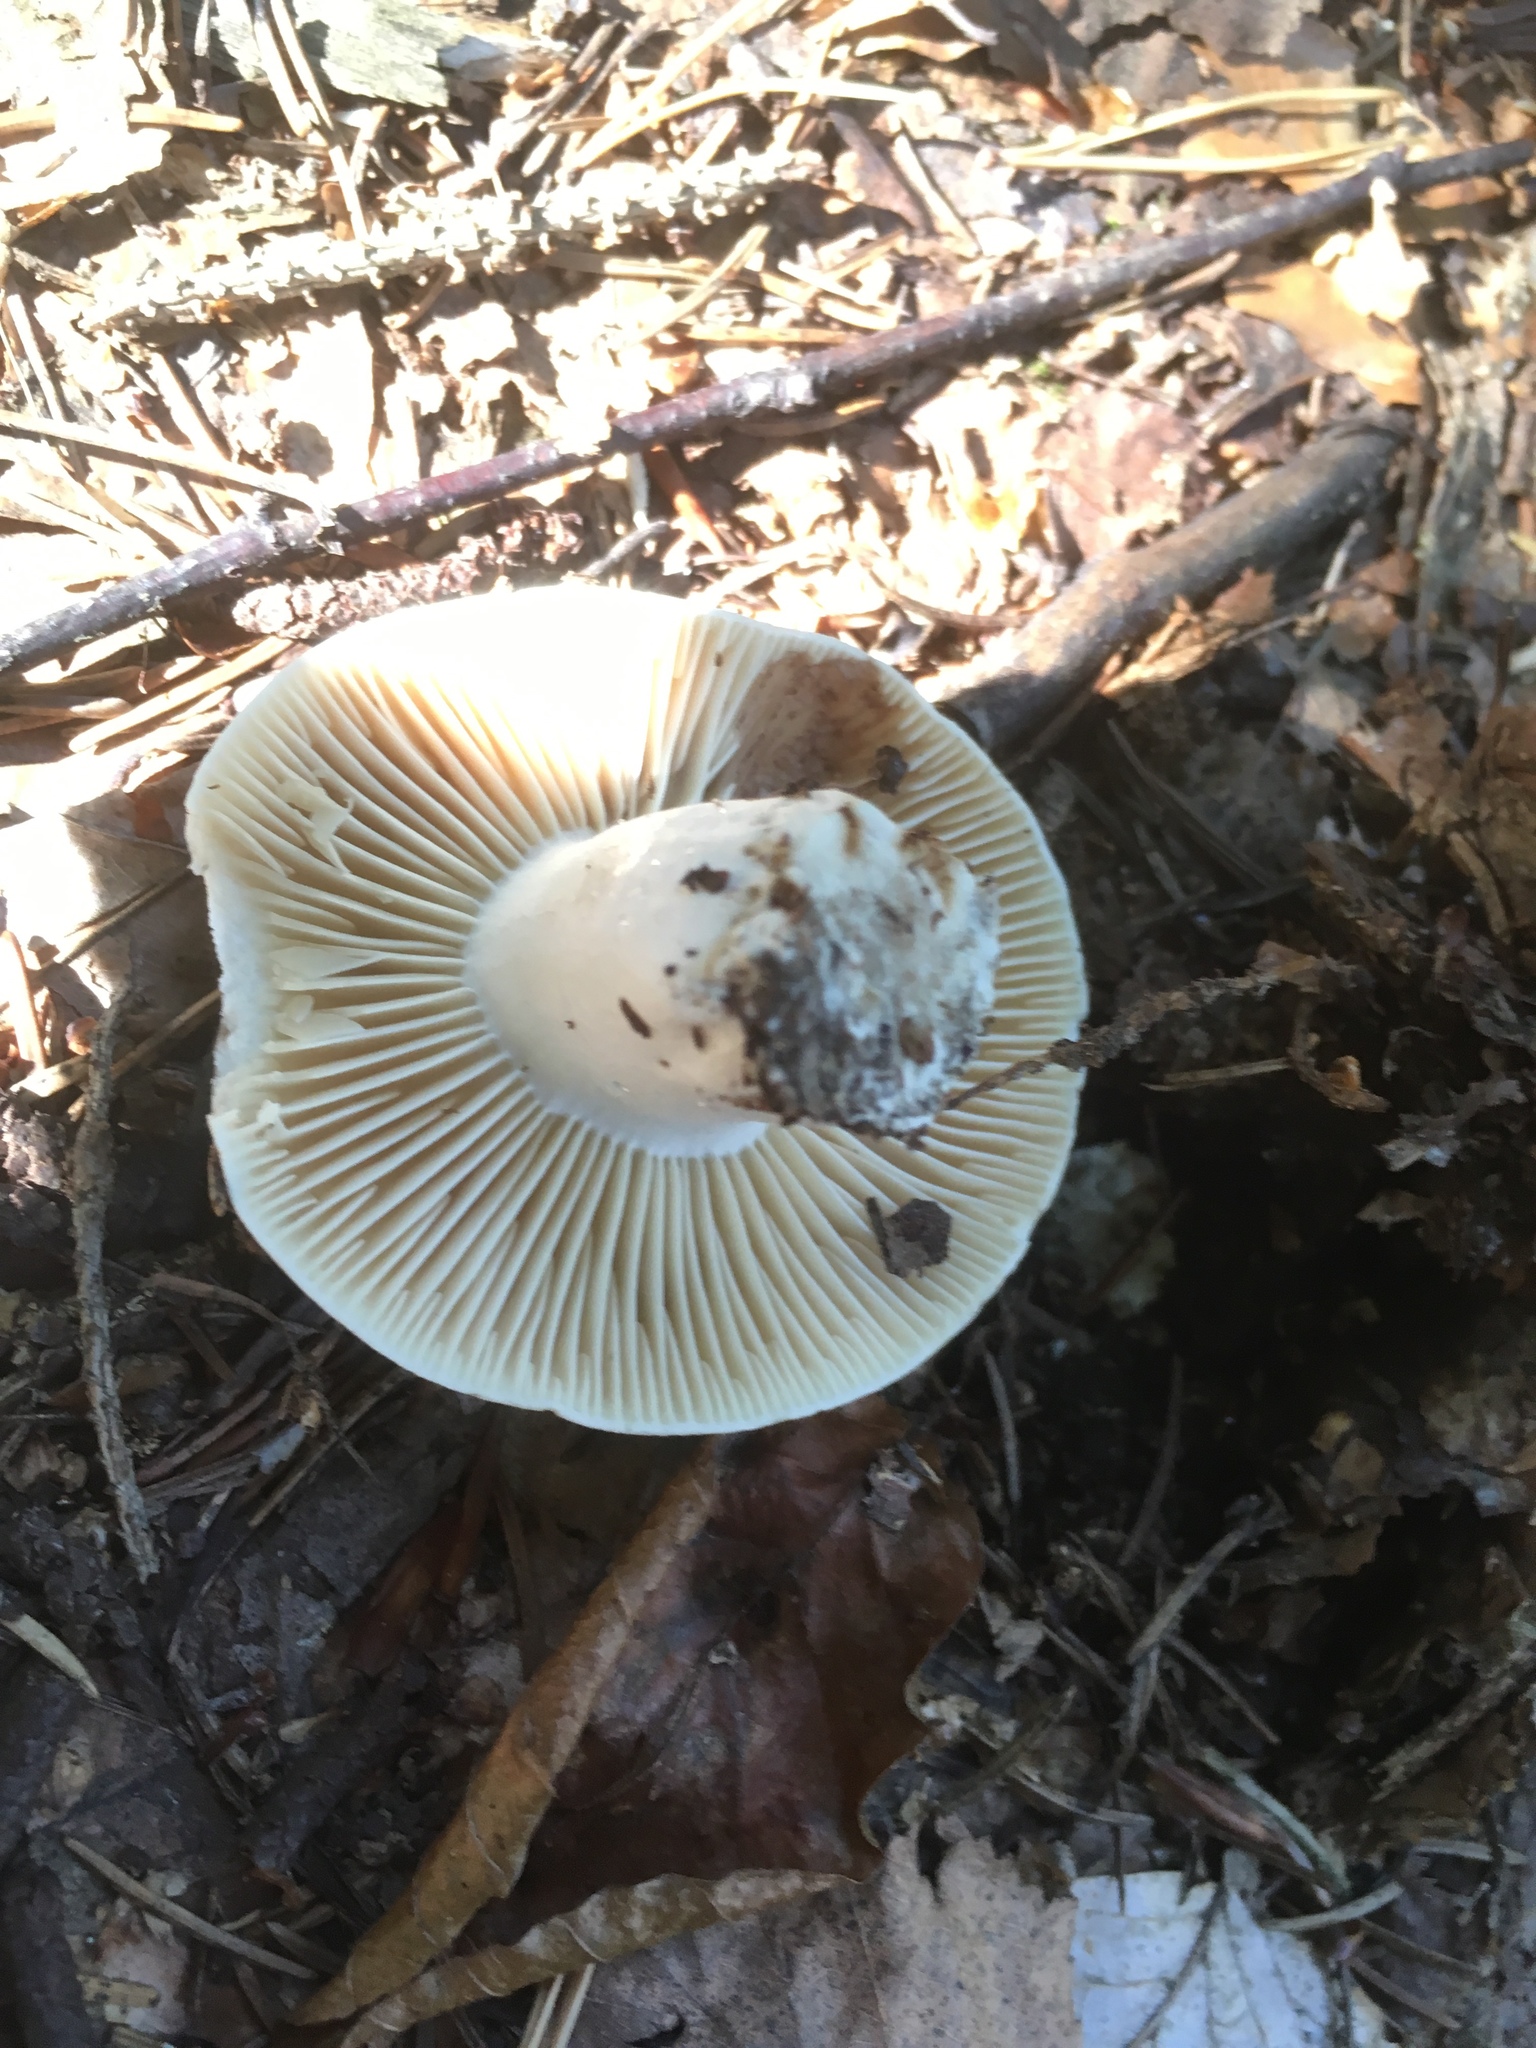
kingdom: Fungi
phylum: Basidiomycota
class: Agaricomycetes
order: Russulales
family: Russulaceae
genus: Russula
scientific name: Russula adusta
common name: Winecork brittlegill
